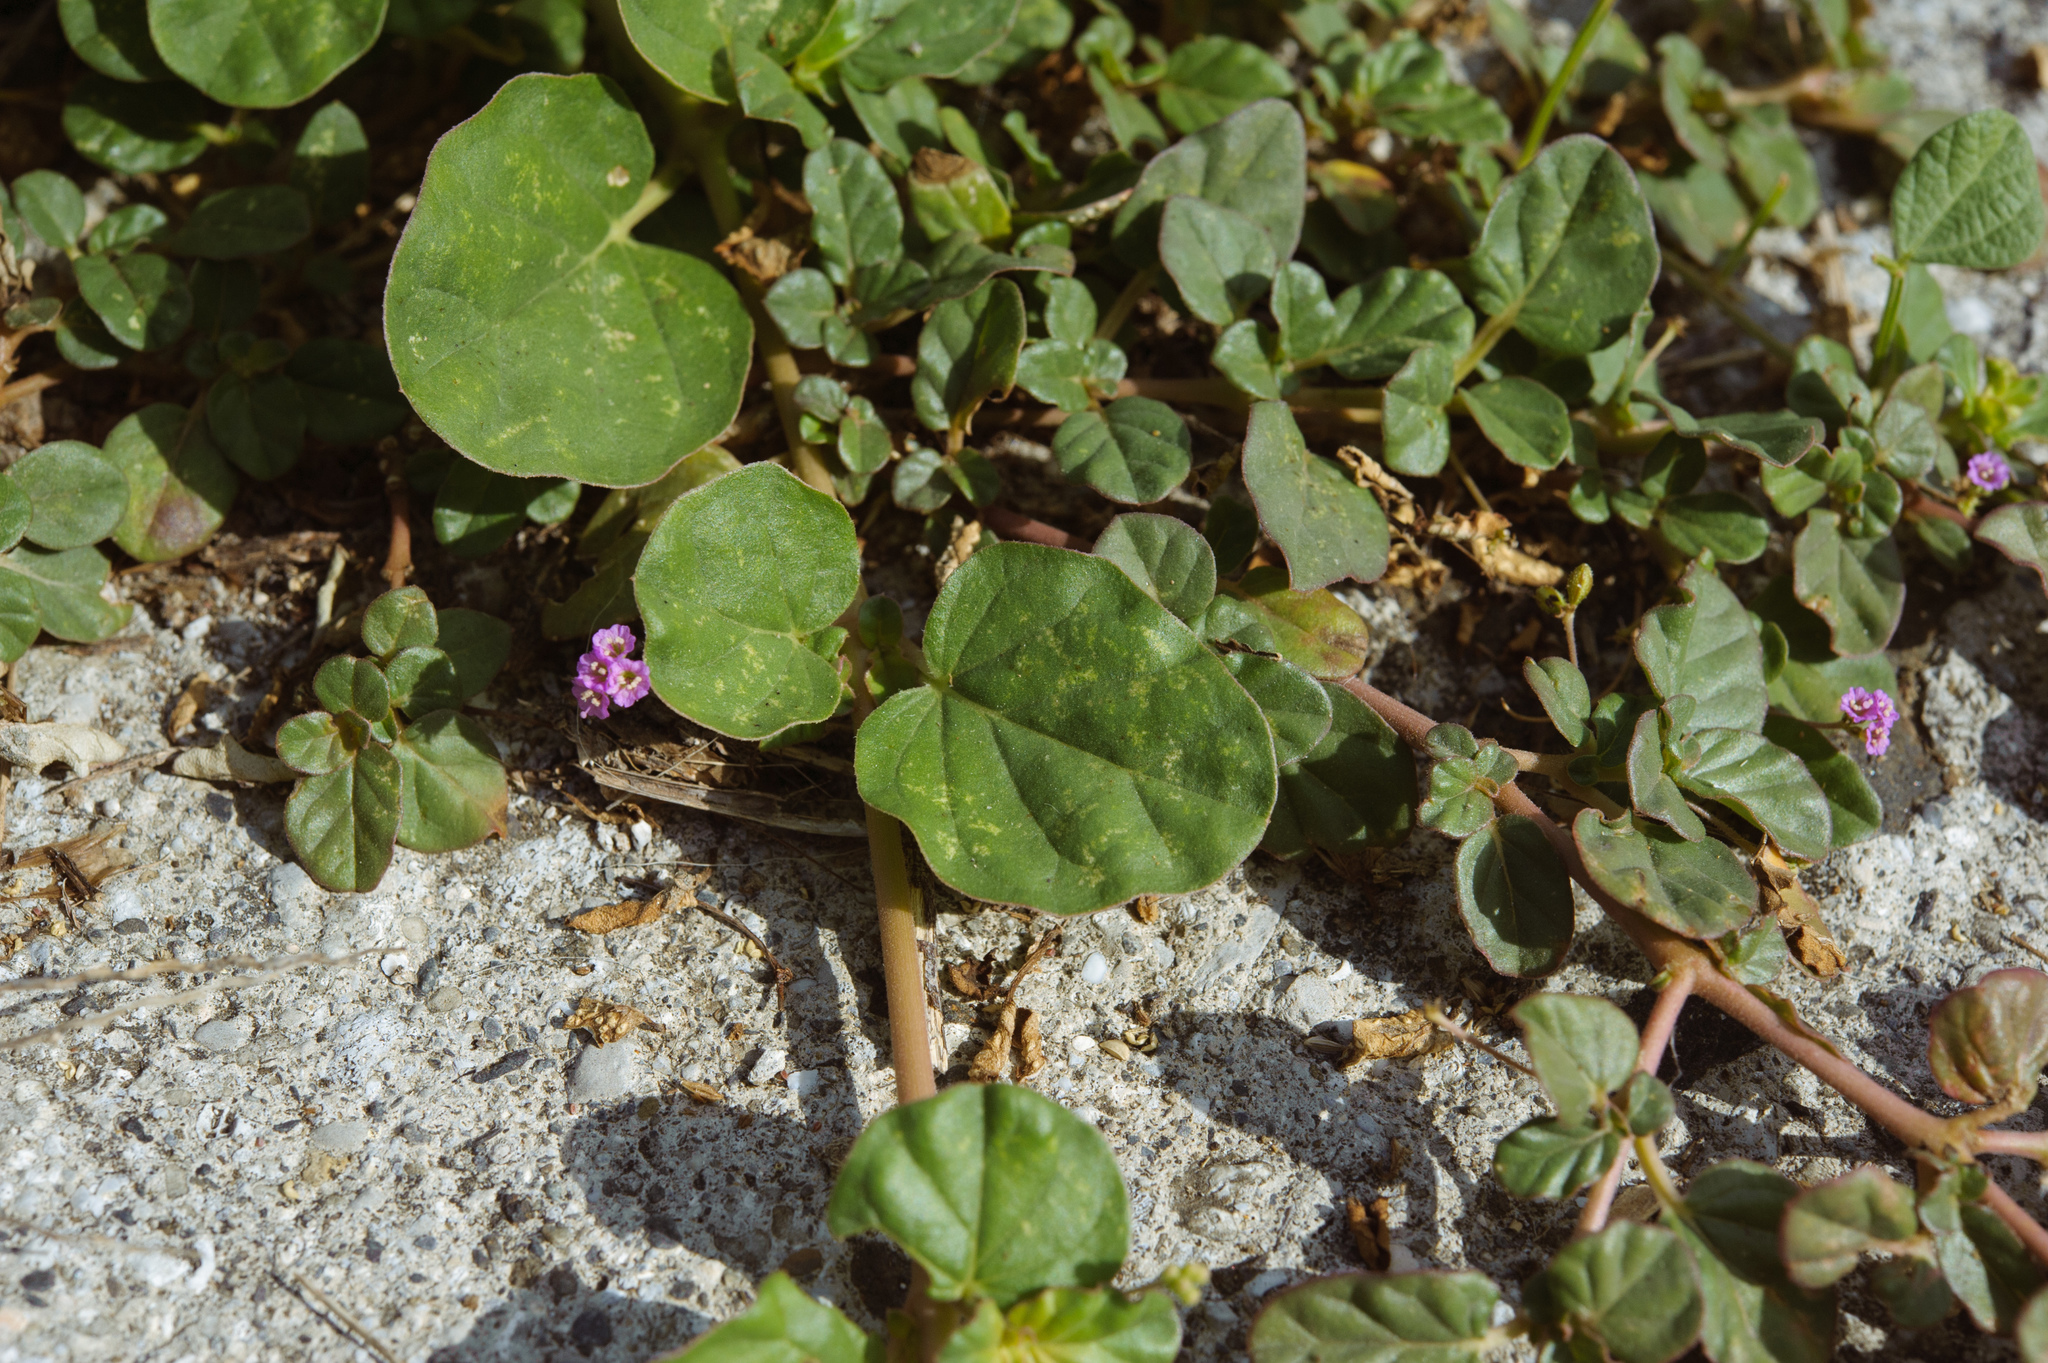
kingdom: Plantae
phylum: Tracheophyta
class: Magnoliopsida
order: Caryophyllales
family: Nyctaginaceae
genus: Boerhavia
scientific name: Boerhavia coccinea
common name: Scarlet spiderling
